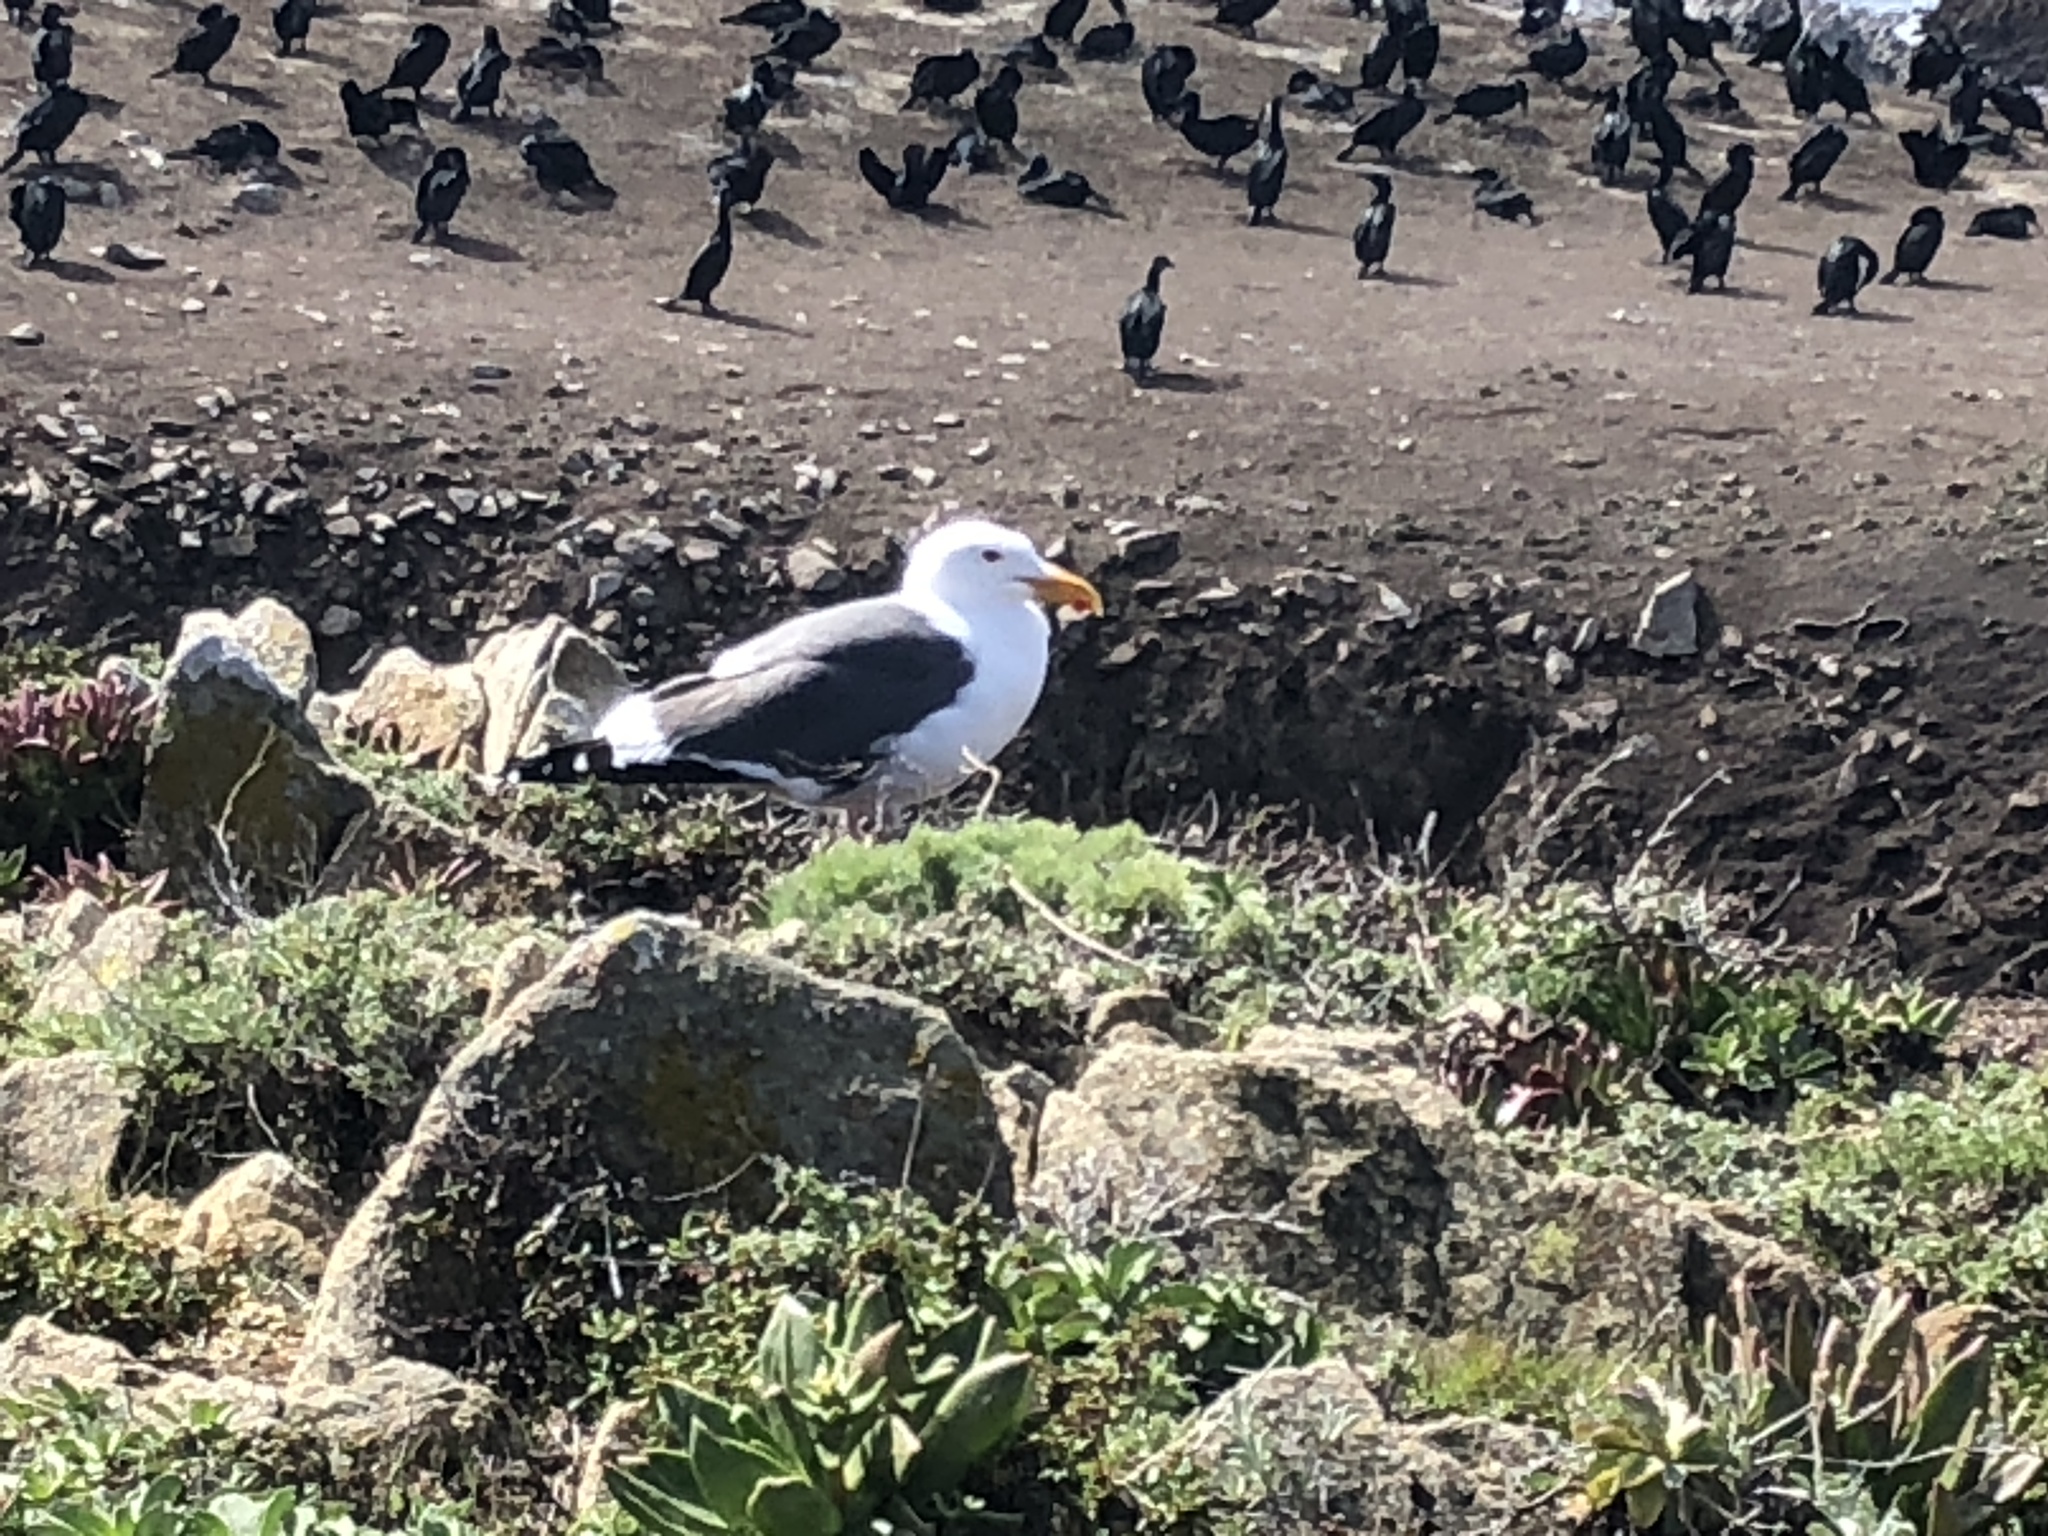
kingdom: Animalia
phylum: Chordata
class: Aves
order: Charadriiformes
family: Laridae
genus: Larus
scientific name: Larus occidentalis
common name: Western gull
